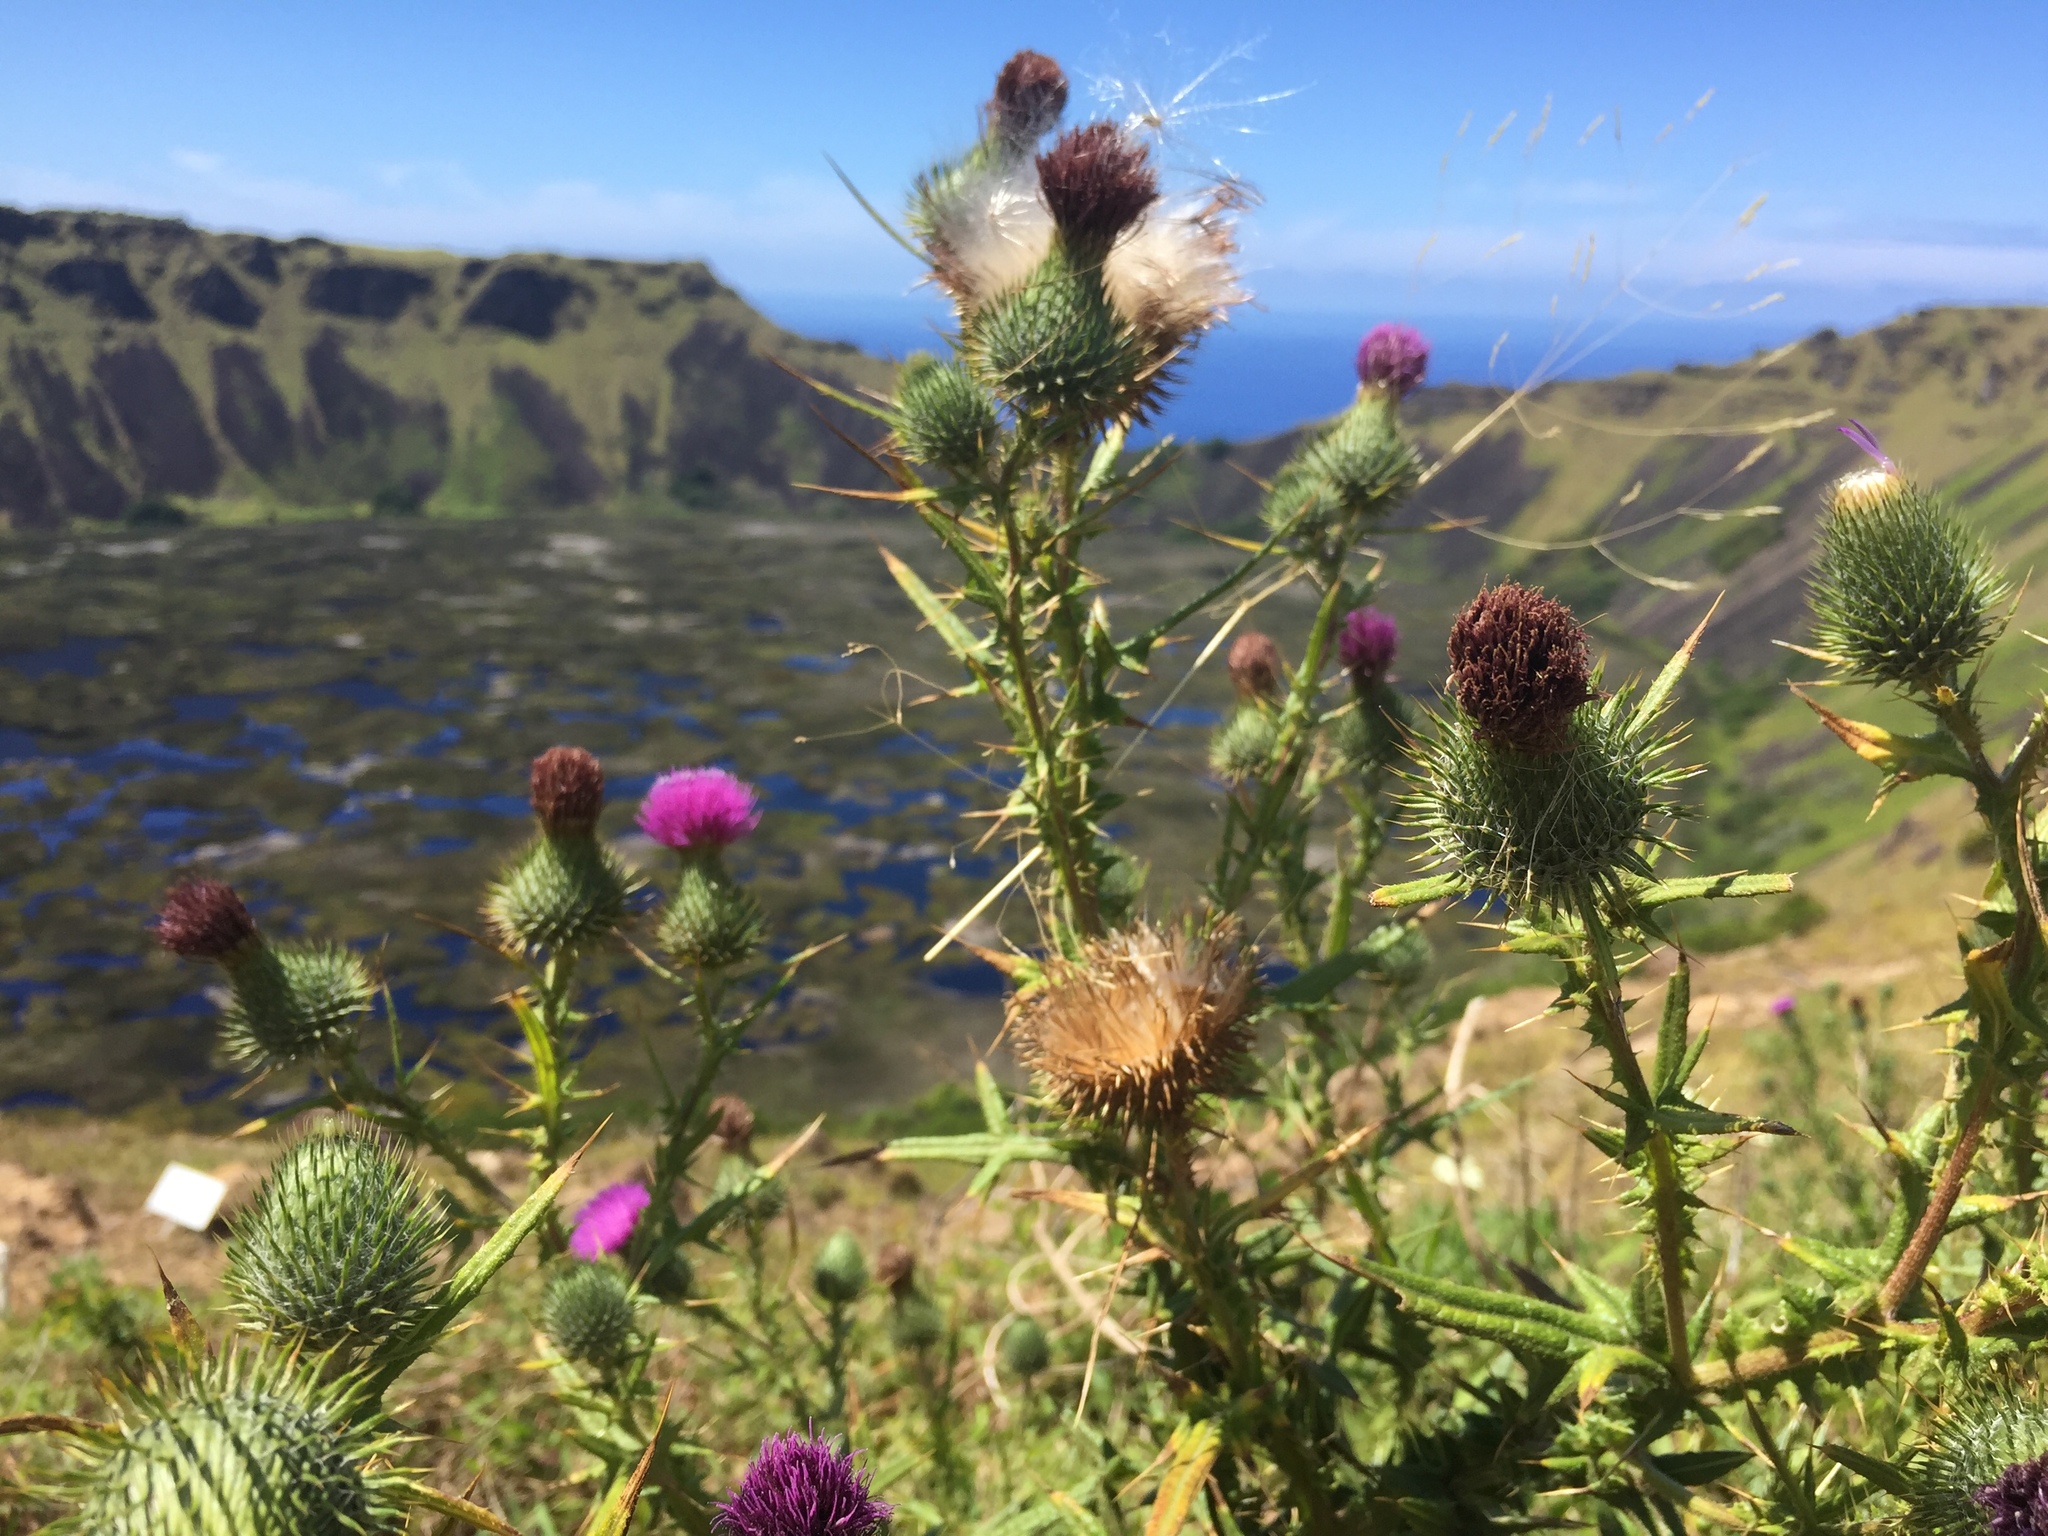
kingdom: Plantae
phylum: Tracheophyta
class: Magnoliopsida
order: Asterales
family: Asteraceae
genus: Cirsium
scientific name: Cirsium vulgare
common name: Bull thistle
